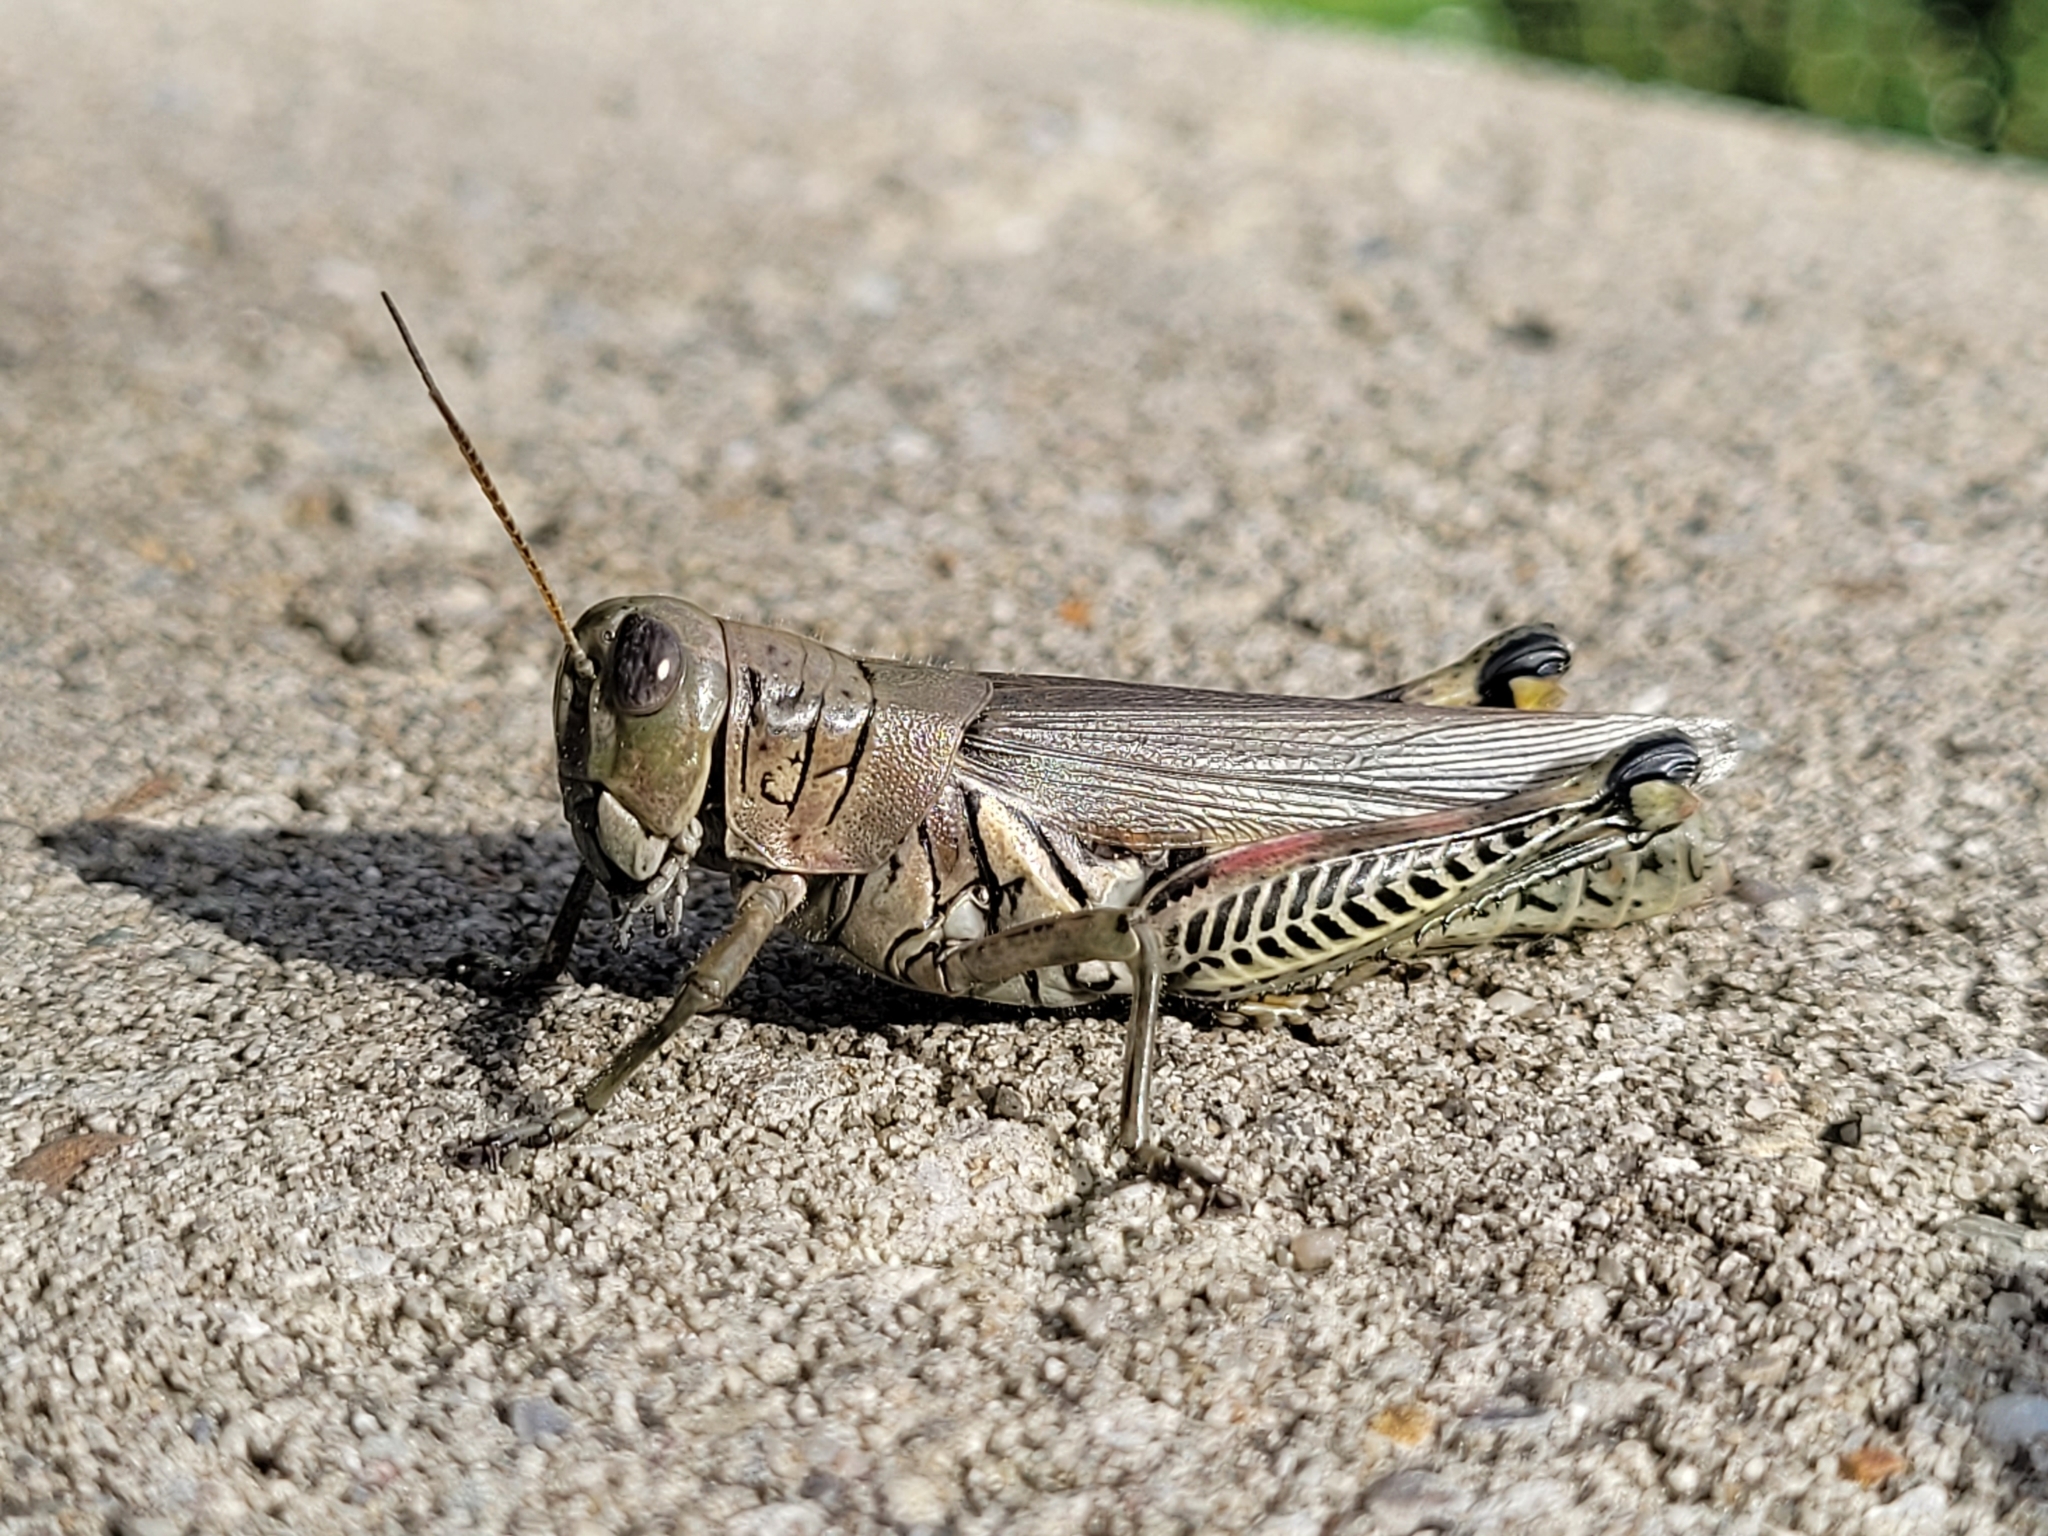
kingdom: Animalia
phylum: Arthropoda
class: Insecta
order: Orthoptera
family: Acrididae
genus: Melanoplus
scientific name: Melanoplus differentialis
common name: Differential grasshopper
